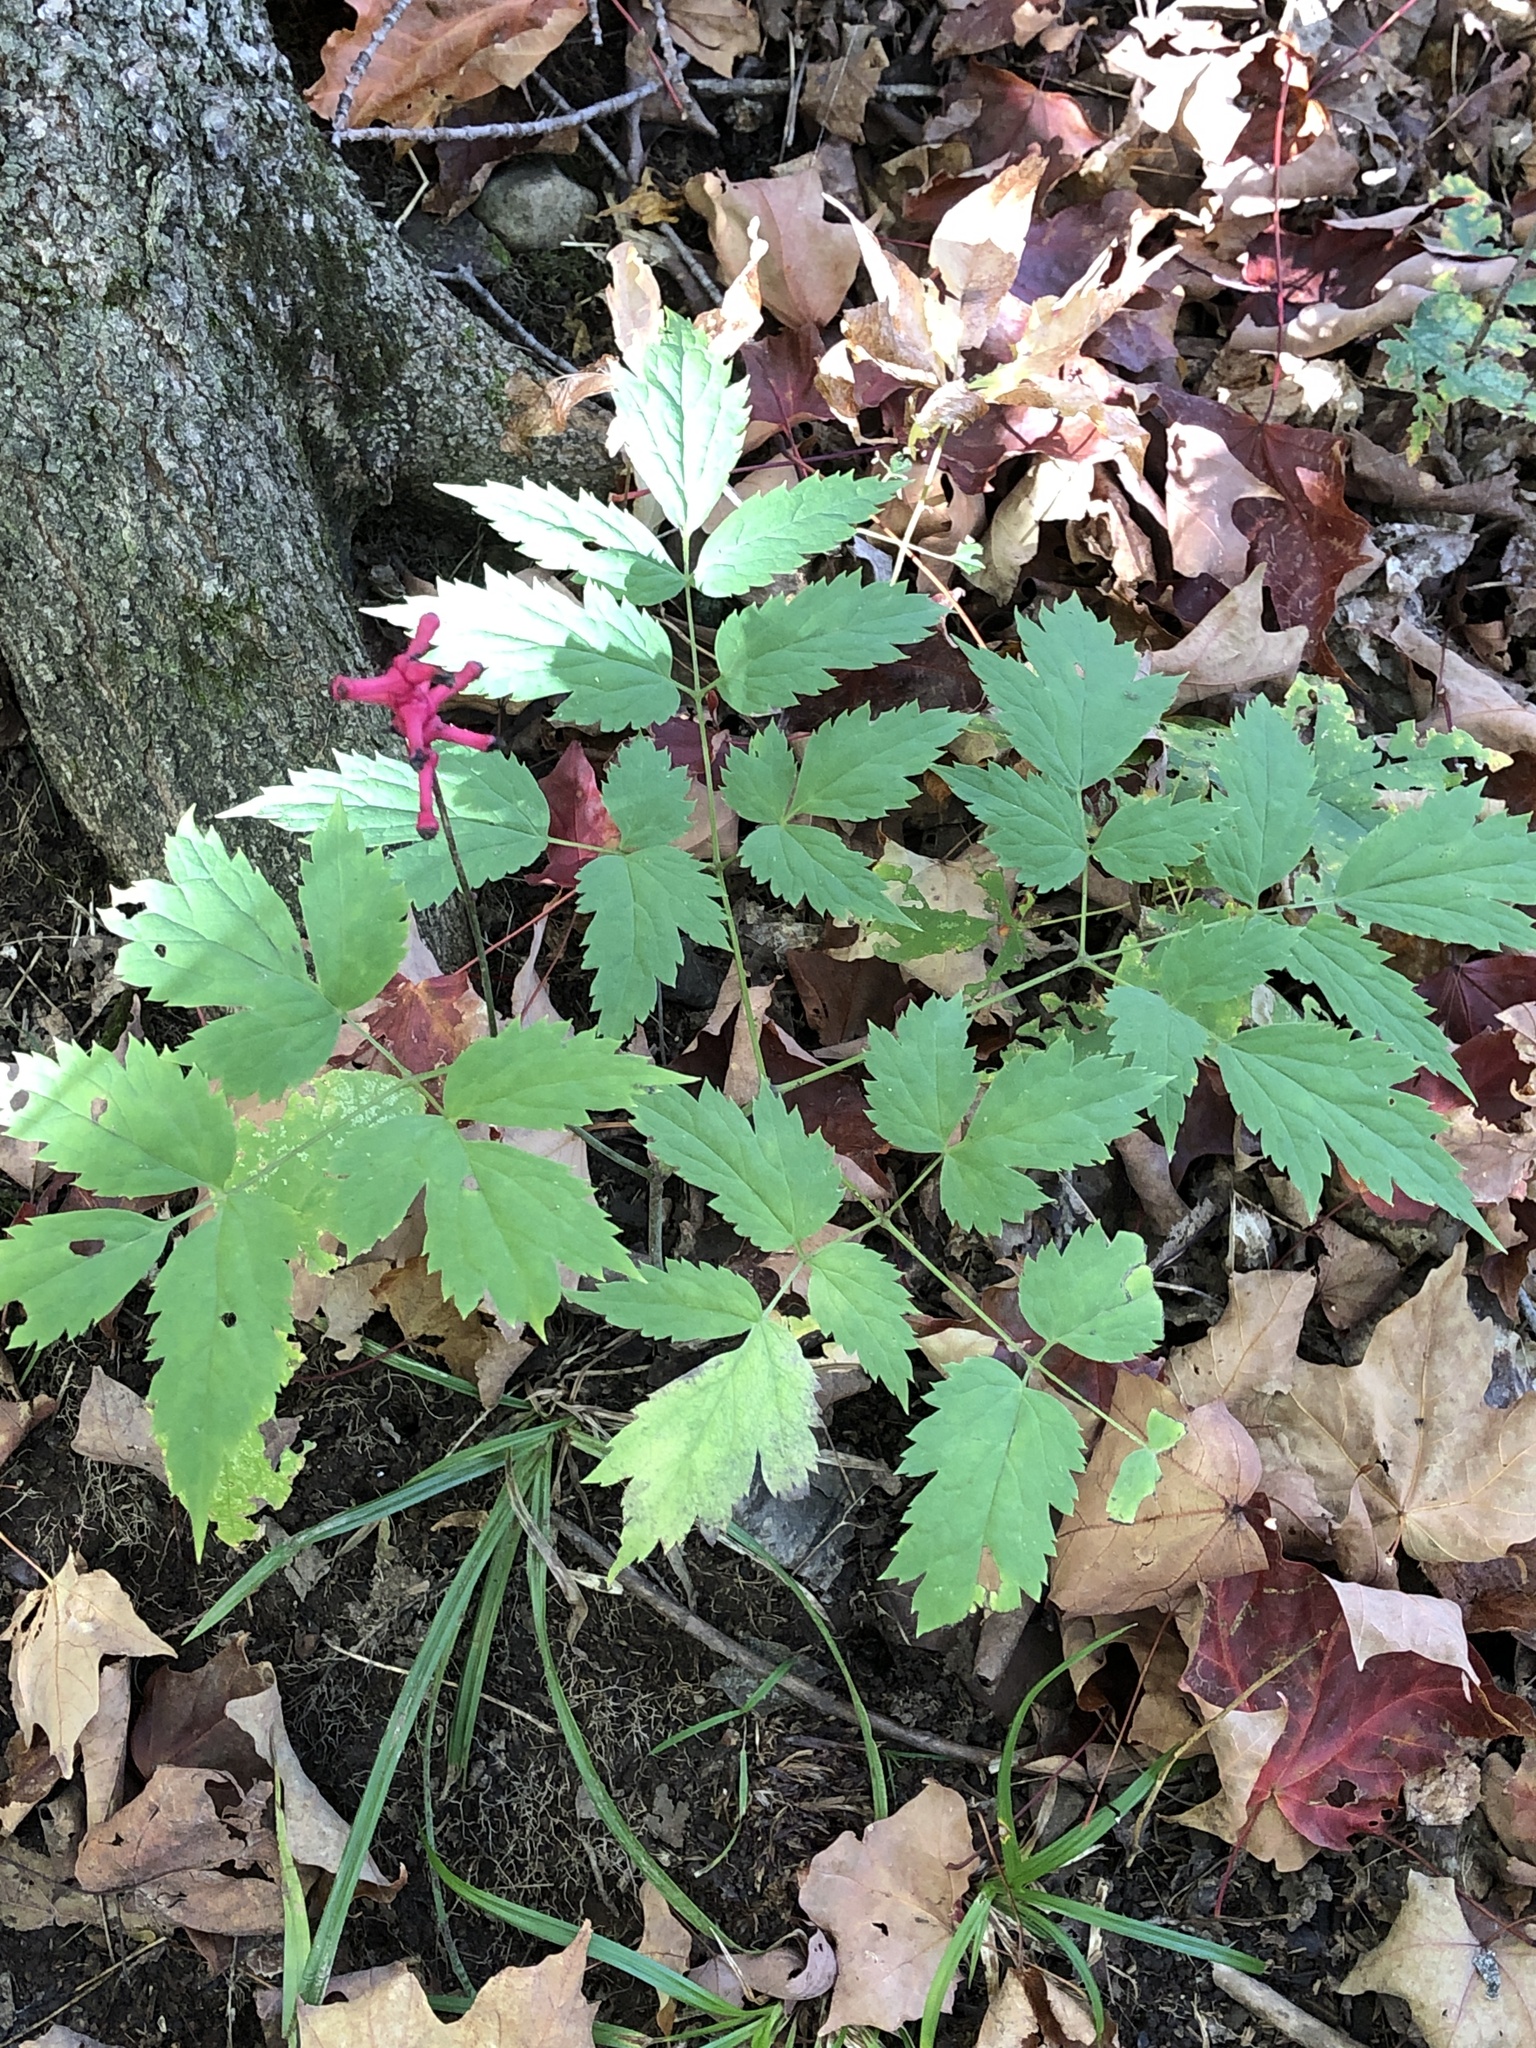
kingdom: Plantae
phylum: Tracheophyta
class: Magnoliopsida
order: Ranunculales
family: Ranunculaceae
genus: Actaea
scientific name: Actaea pachypoda
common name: Doll's-eyes
